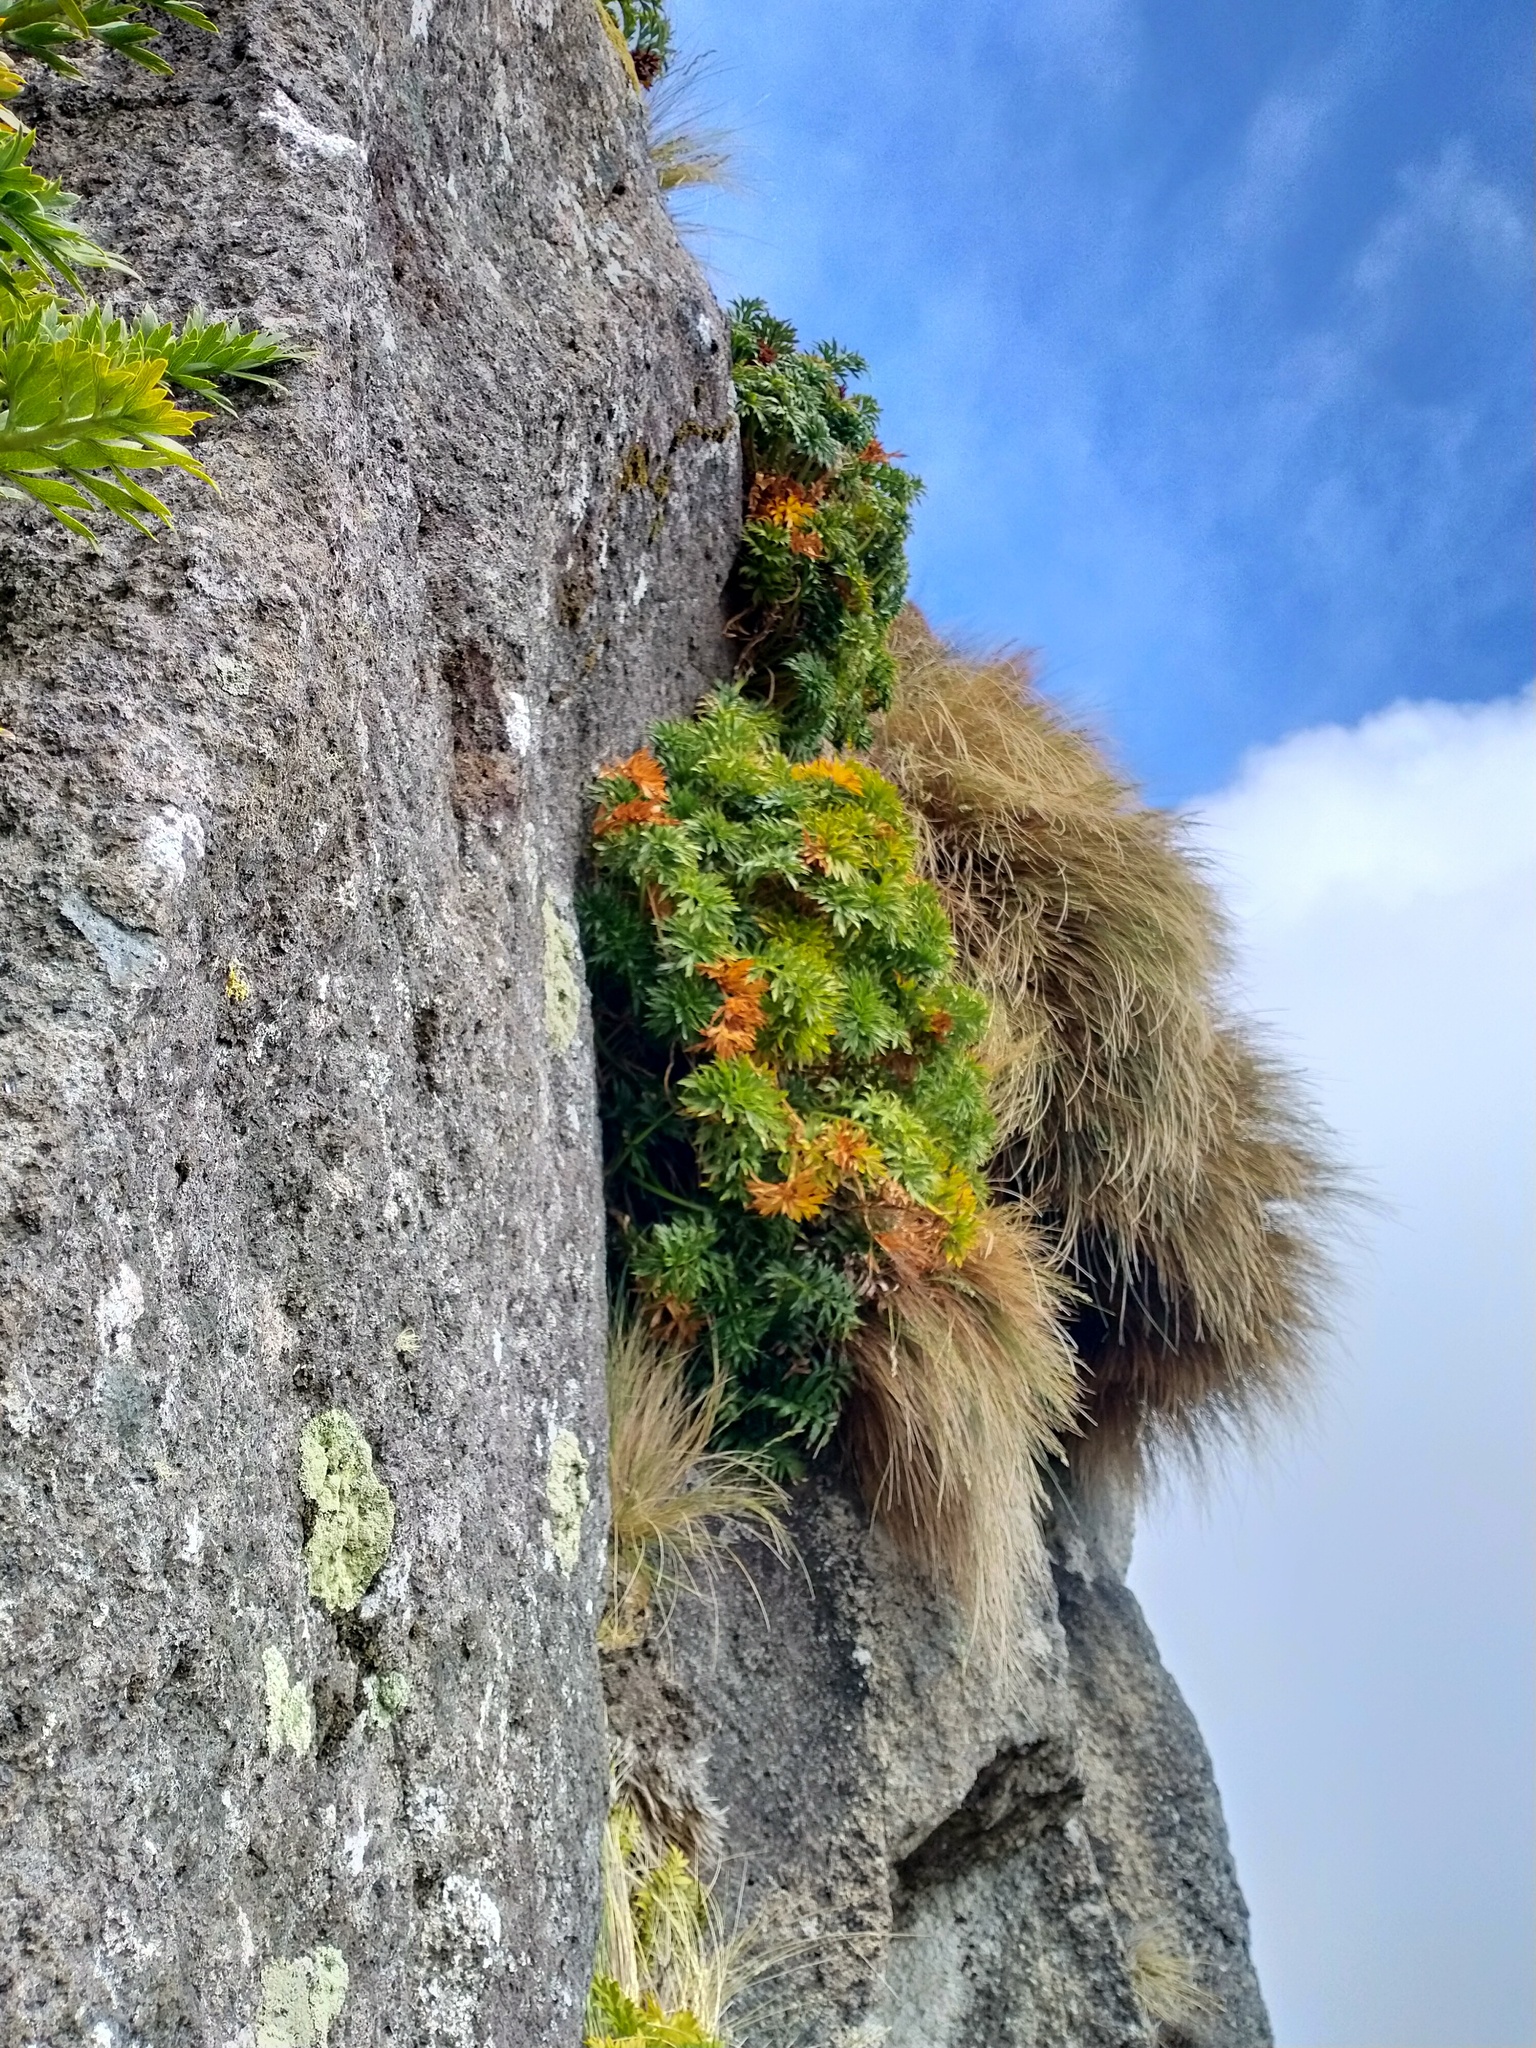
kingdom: Plantae
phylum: Tracheophyta
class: Magnoliopsida
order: Apiales
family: Apiaceae
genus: Anisotome
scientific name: Anisotome latifolia
